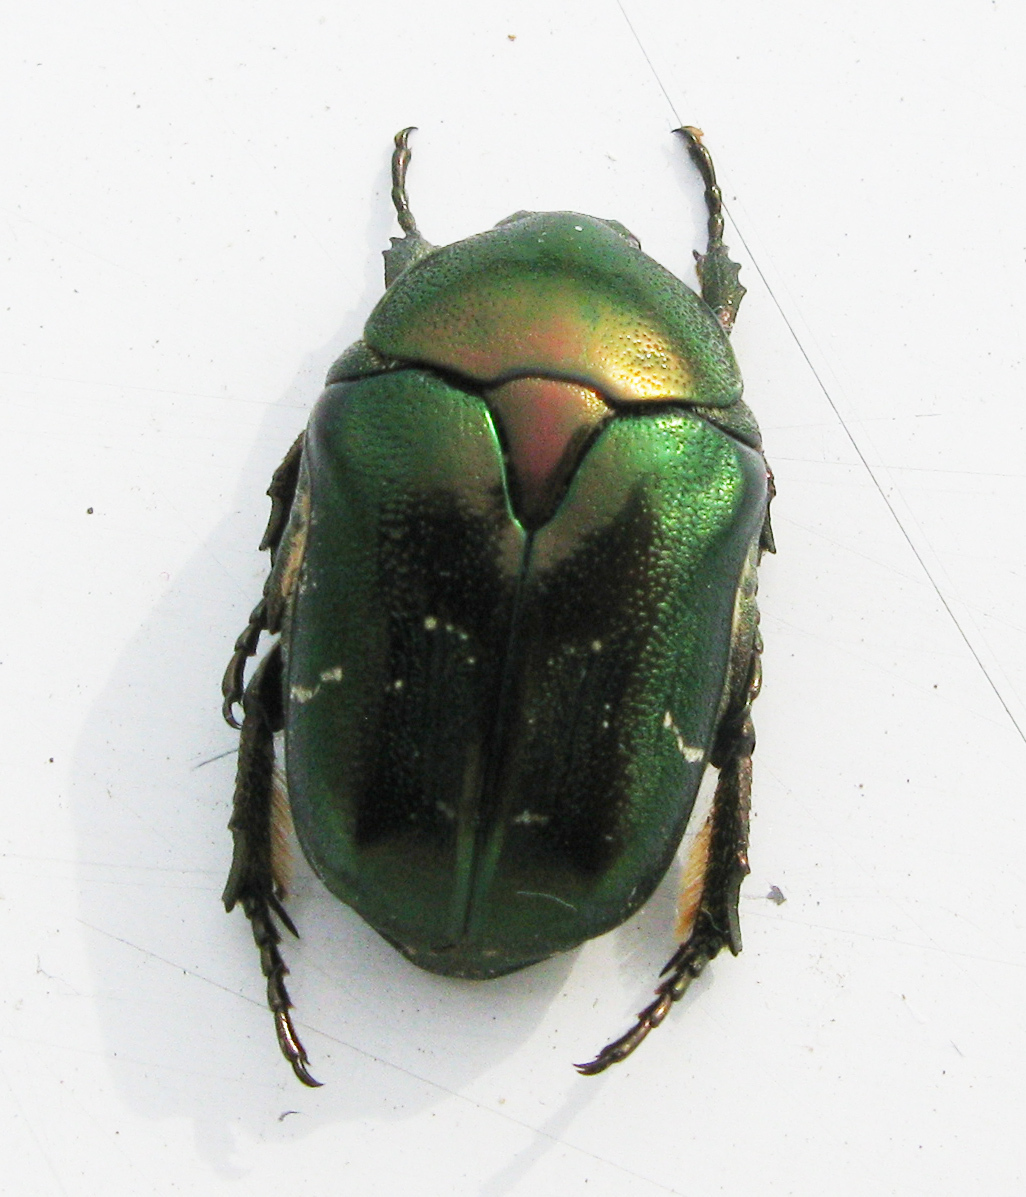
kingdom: Animalia
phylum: Arthropoda
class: Insecta
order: Coleoptera
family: Scarabaeidae
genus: Protaetia
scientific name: Protaetia fieberi
